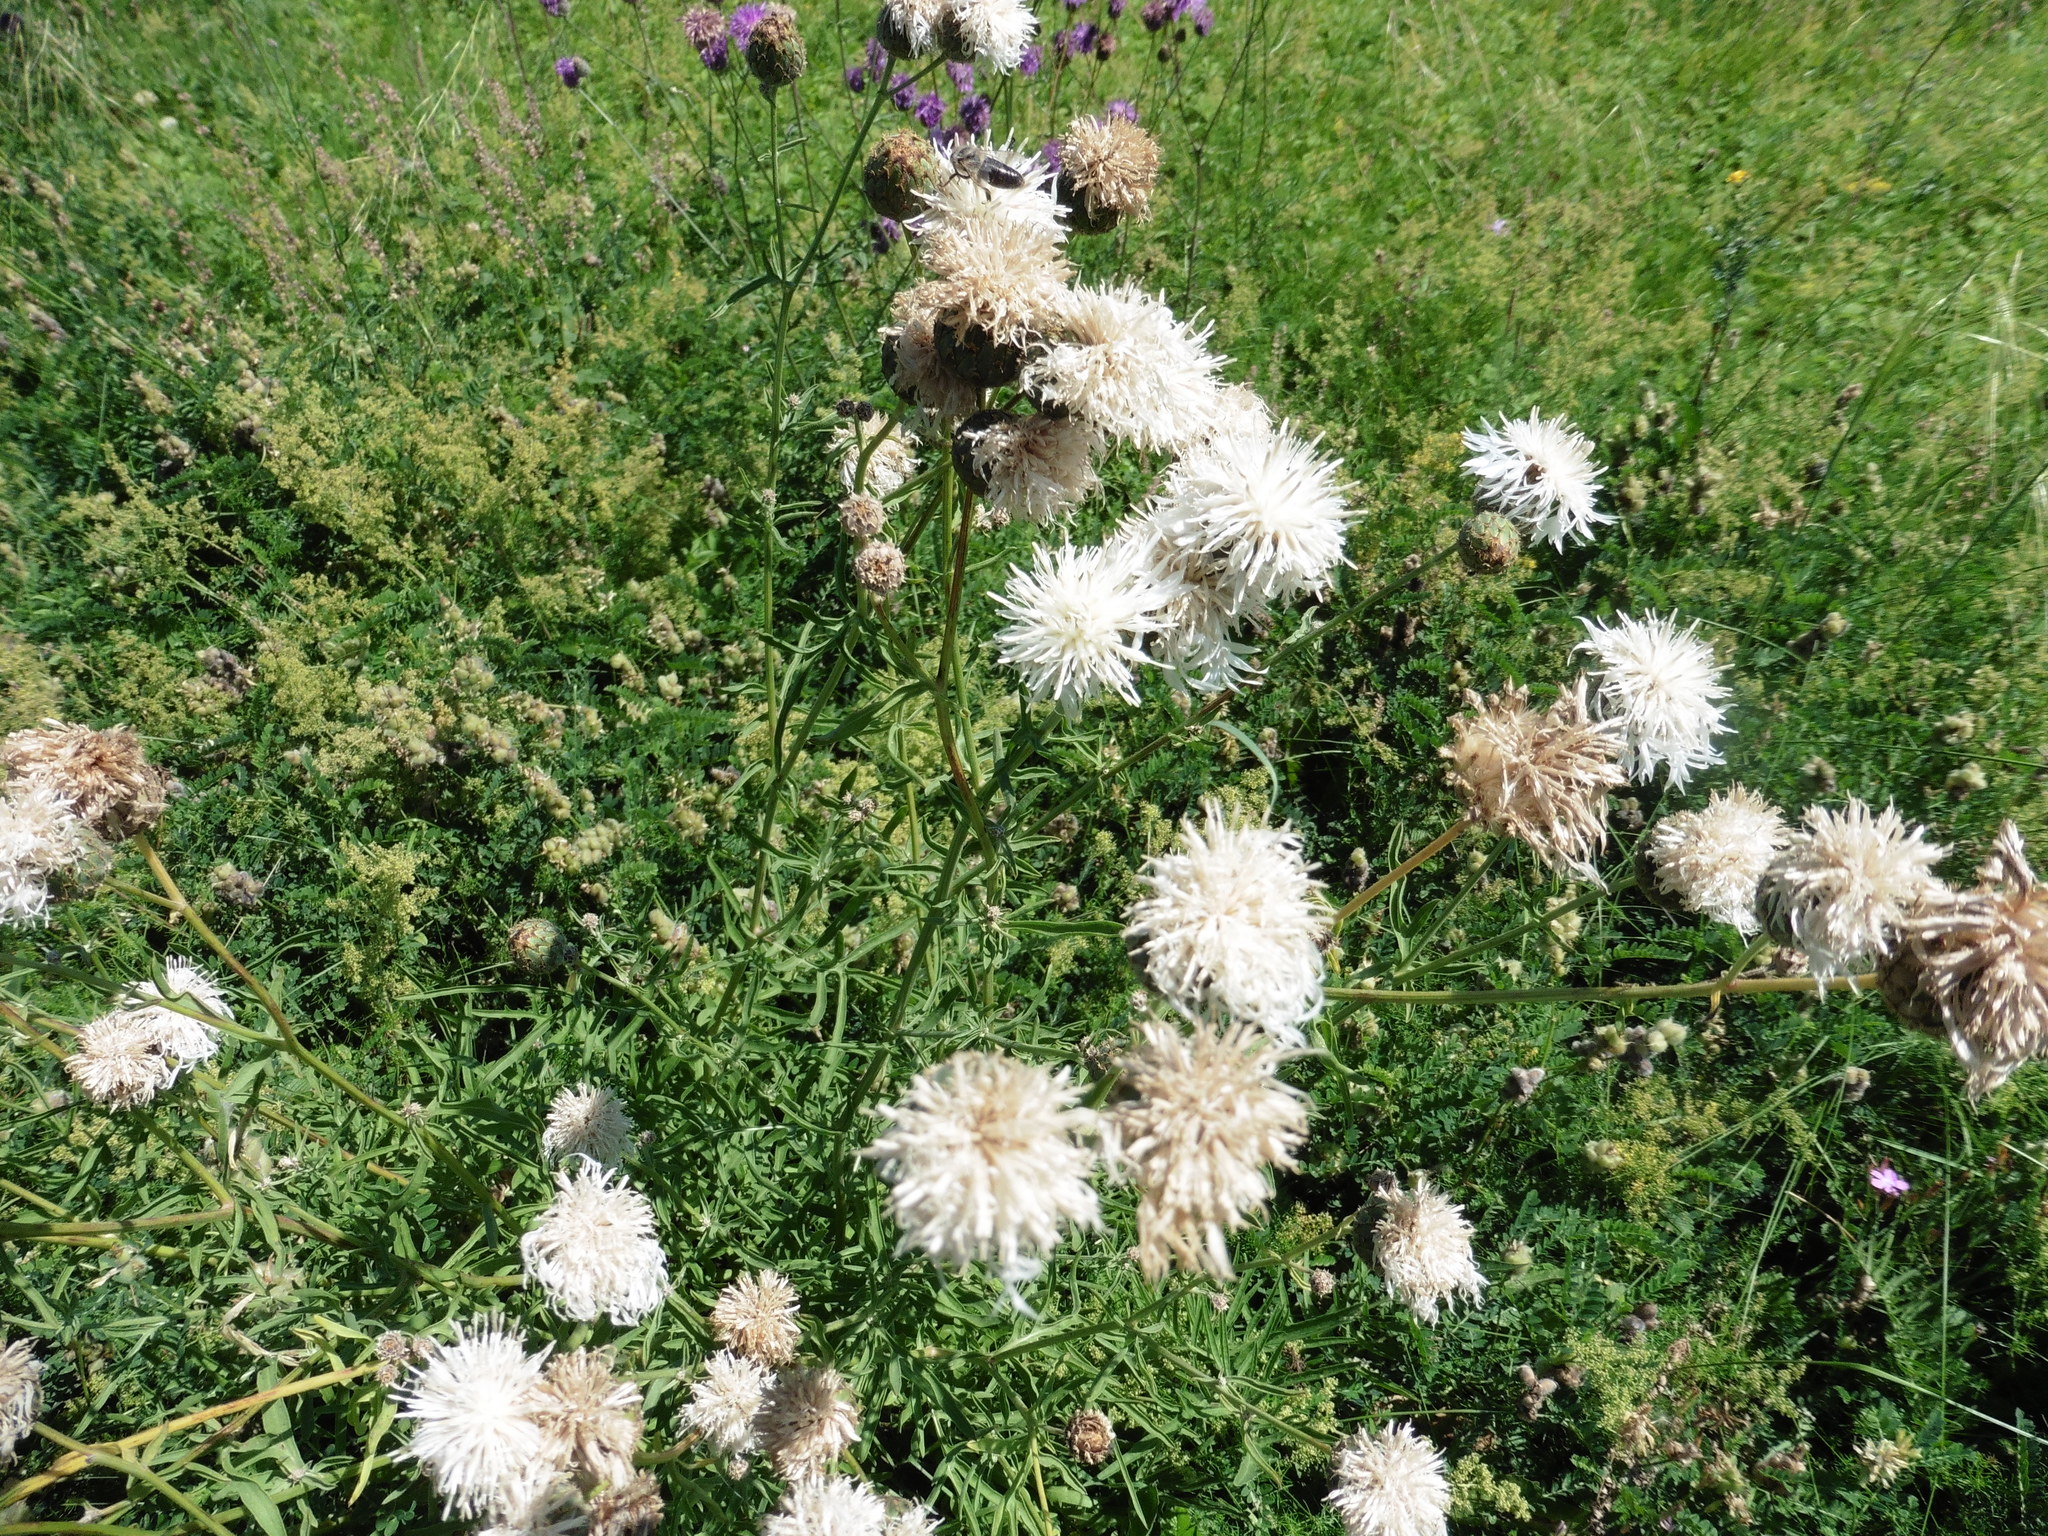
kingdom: Plantae
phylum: Tracheophyta
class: Magnoliopsida
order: Asterales
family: Asteraceae
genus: Centaurea
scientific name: Centaurea scabiosa
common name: Greater knapweed
